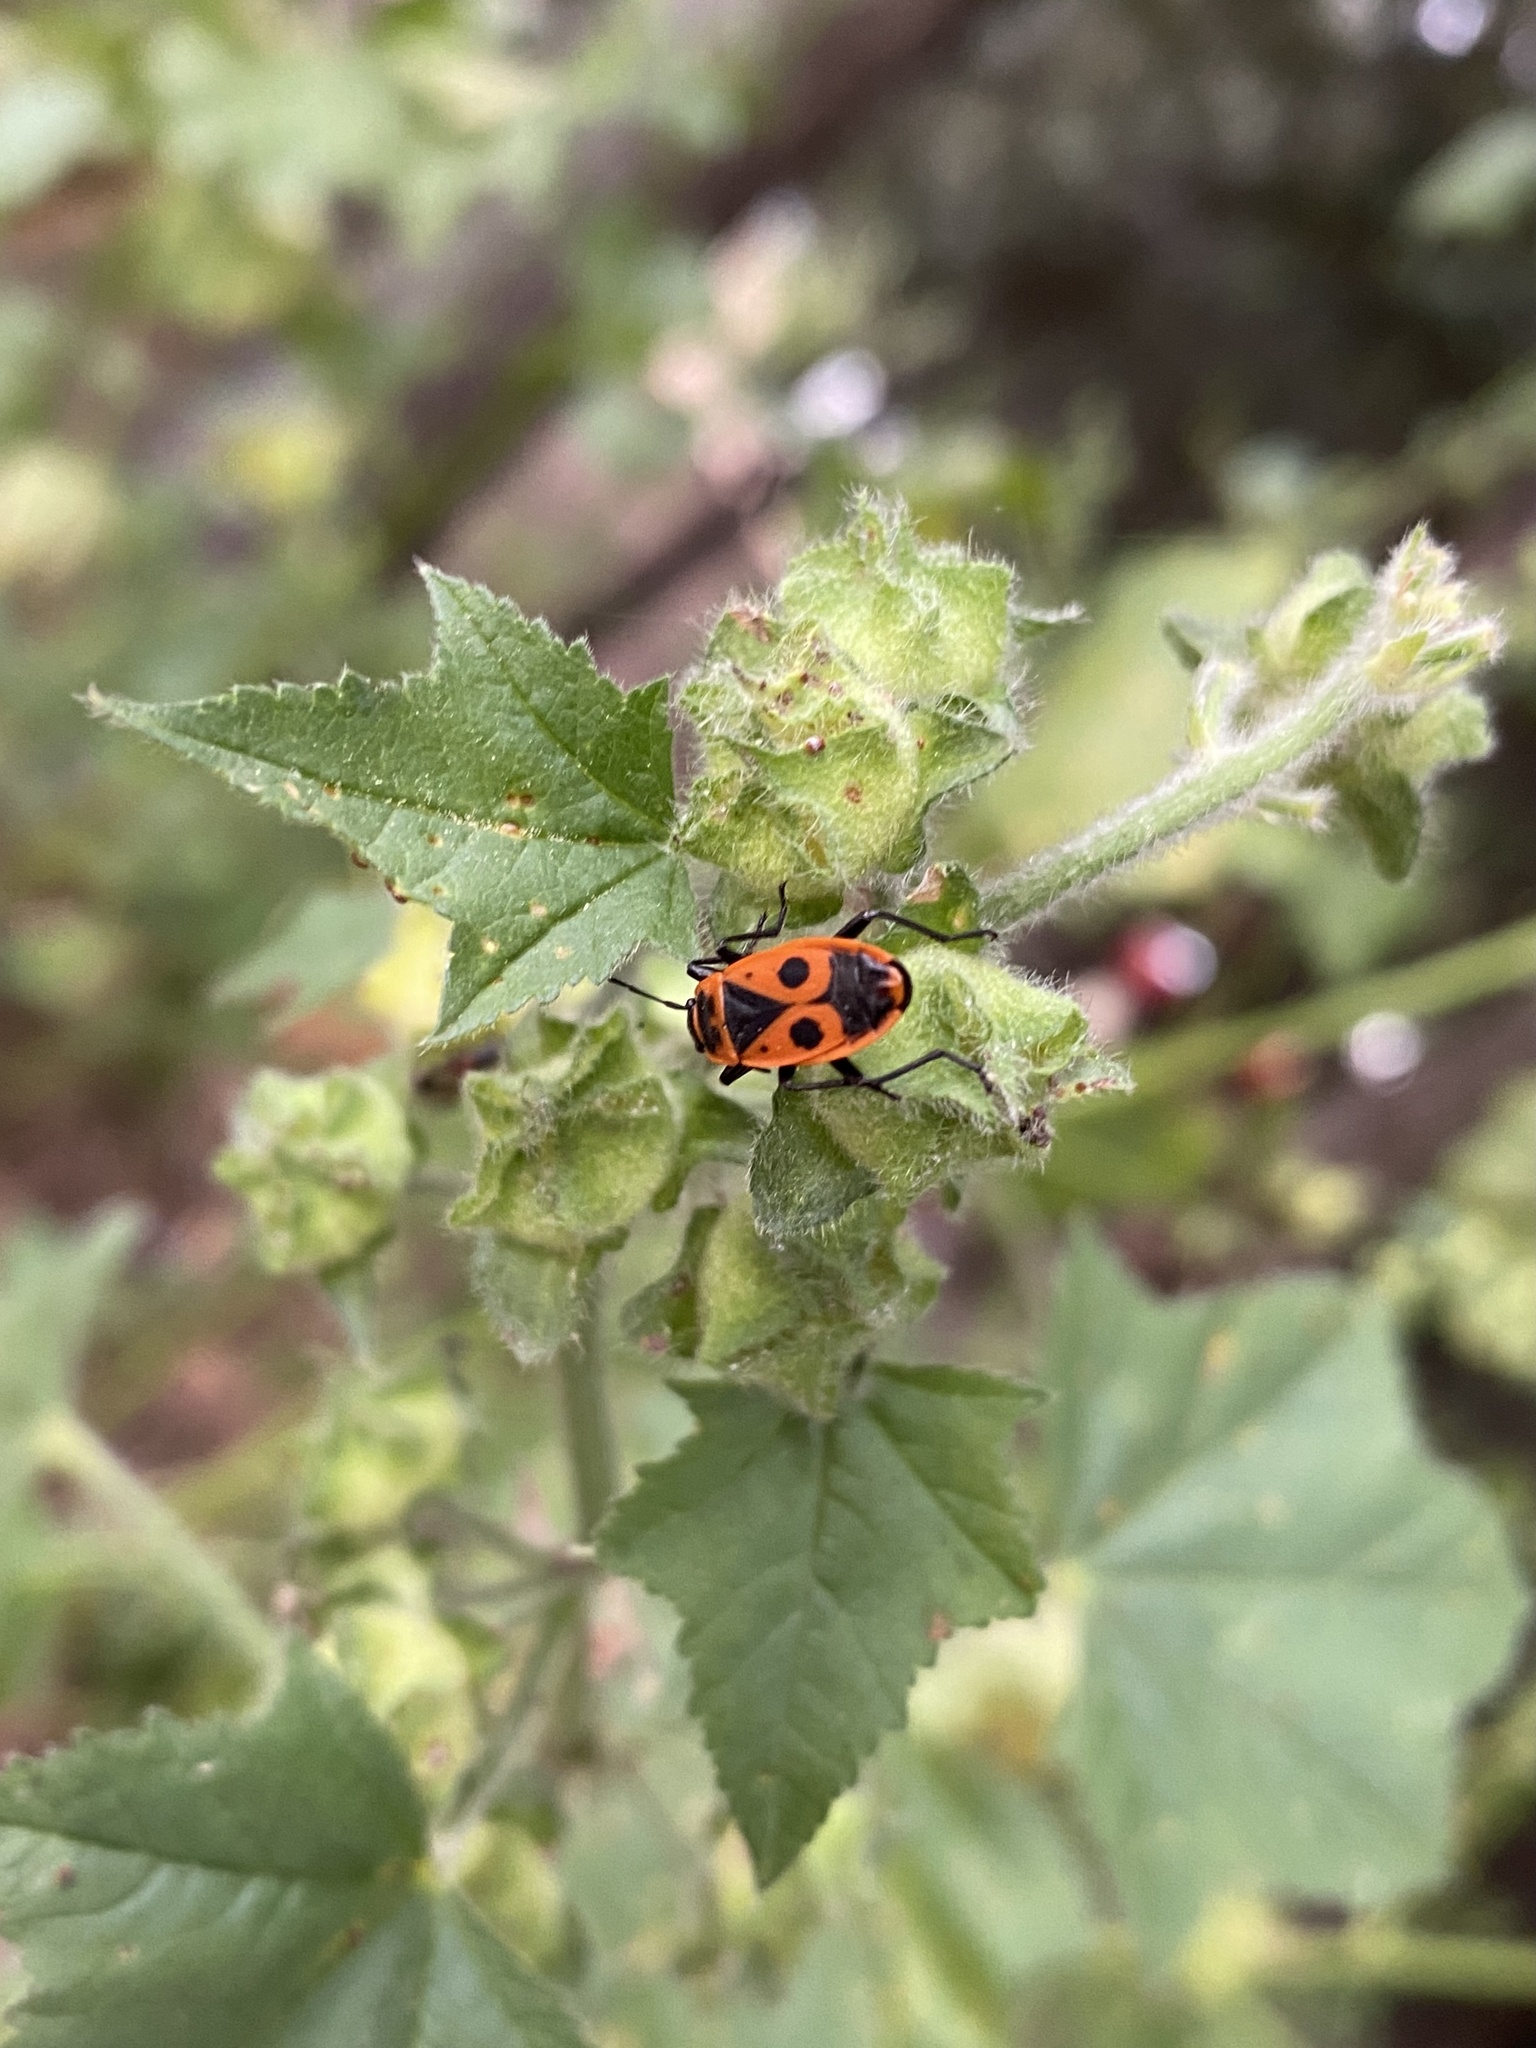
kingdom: Animalia
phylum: Arthropoda
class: Insecta
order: Hemiptera
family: Pyrrhocoridae
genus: Pyrrhocoris
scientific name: Pyrrhocoris apterus
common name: Firebug
